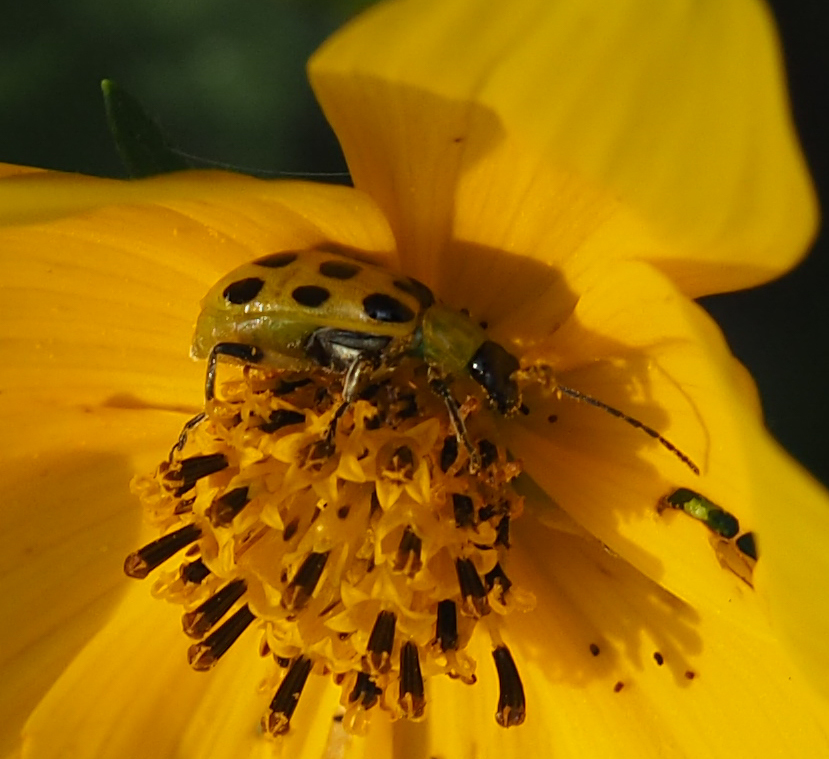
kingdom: Animalia
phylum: Arthropoda
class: Insecta
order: Coleoptera
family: Chrysomelidae
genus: Diabrotica
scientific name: Diabrotica undecimpunctata
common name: Spotted cucumber beetle
